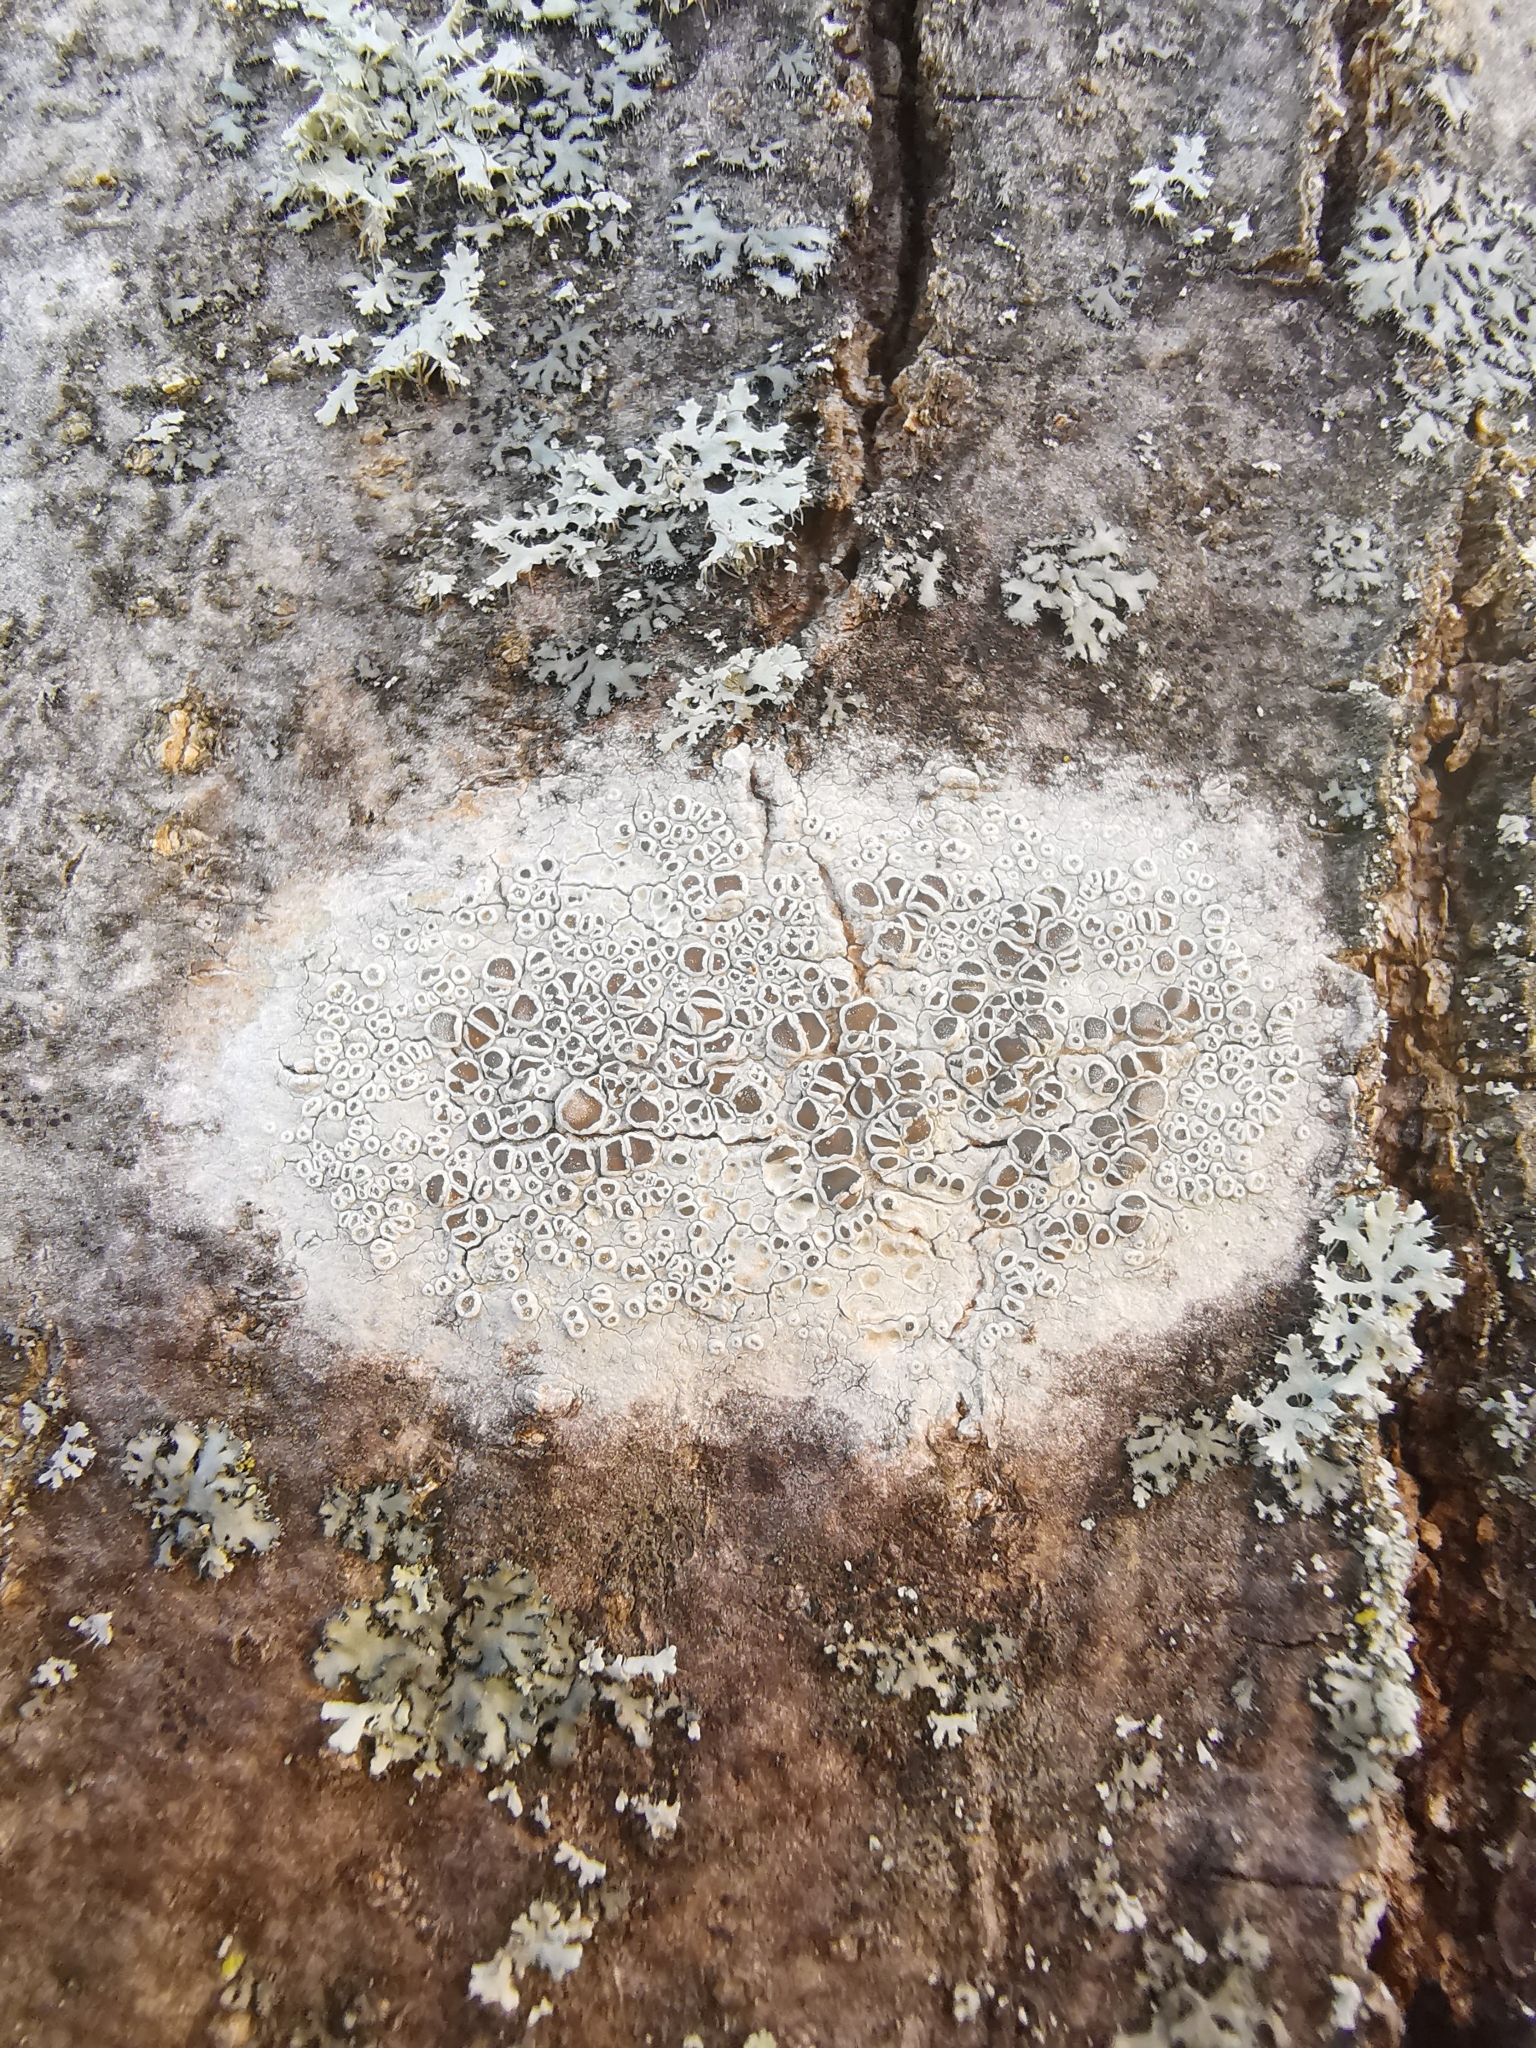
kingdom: Fungi
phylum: Ascomycota
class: Lecanoromycetes
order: Lecanorales
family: Lecanoraceae
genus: Glaucomaria
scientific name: Glaucomaria carpinea
